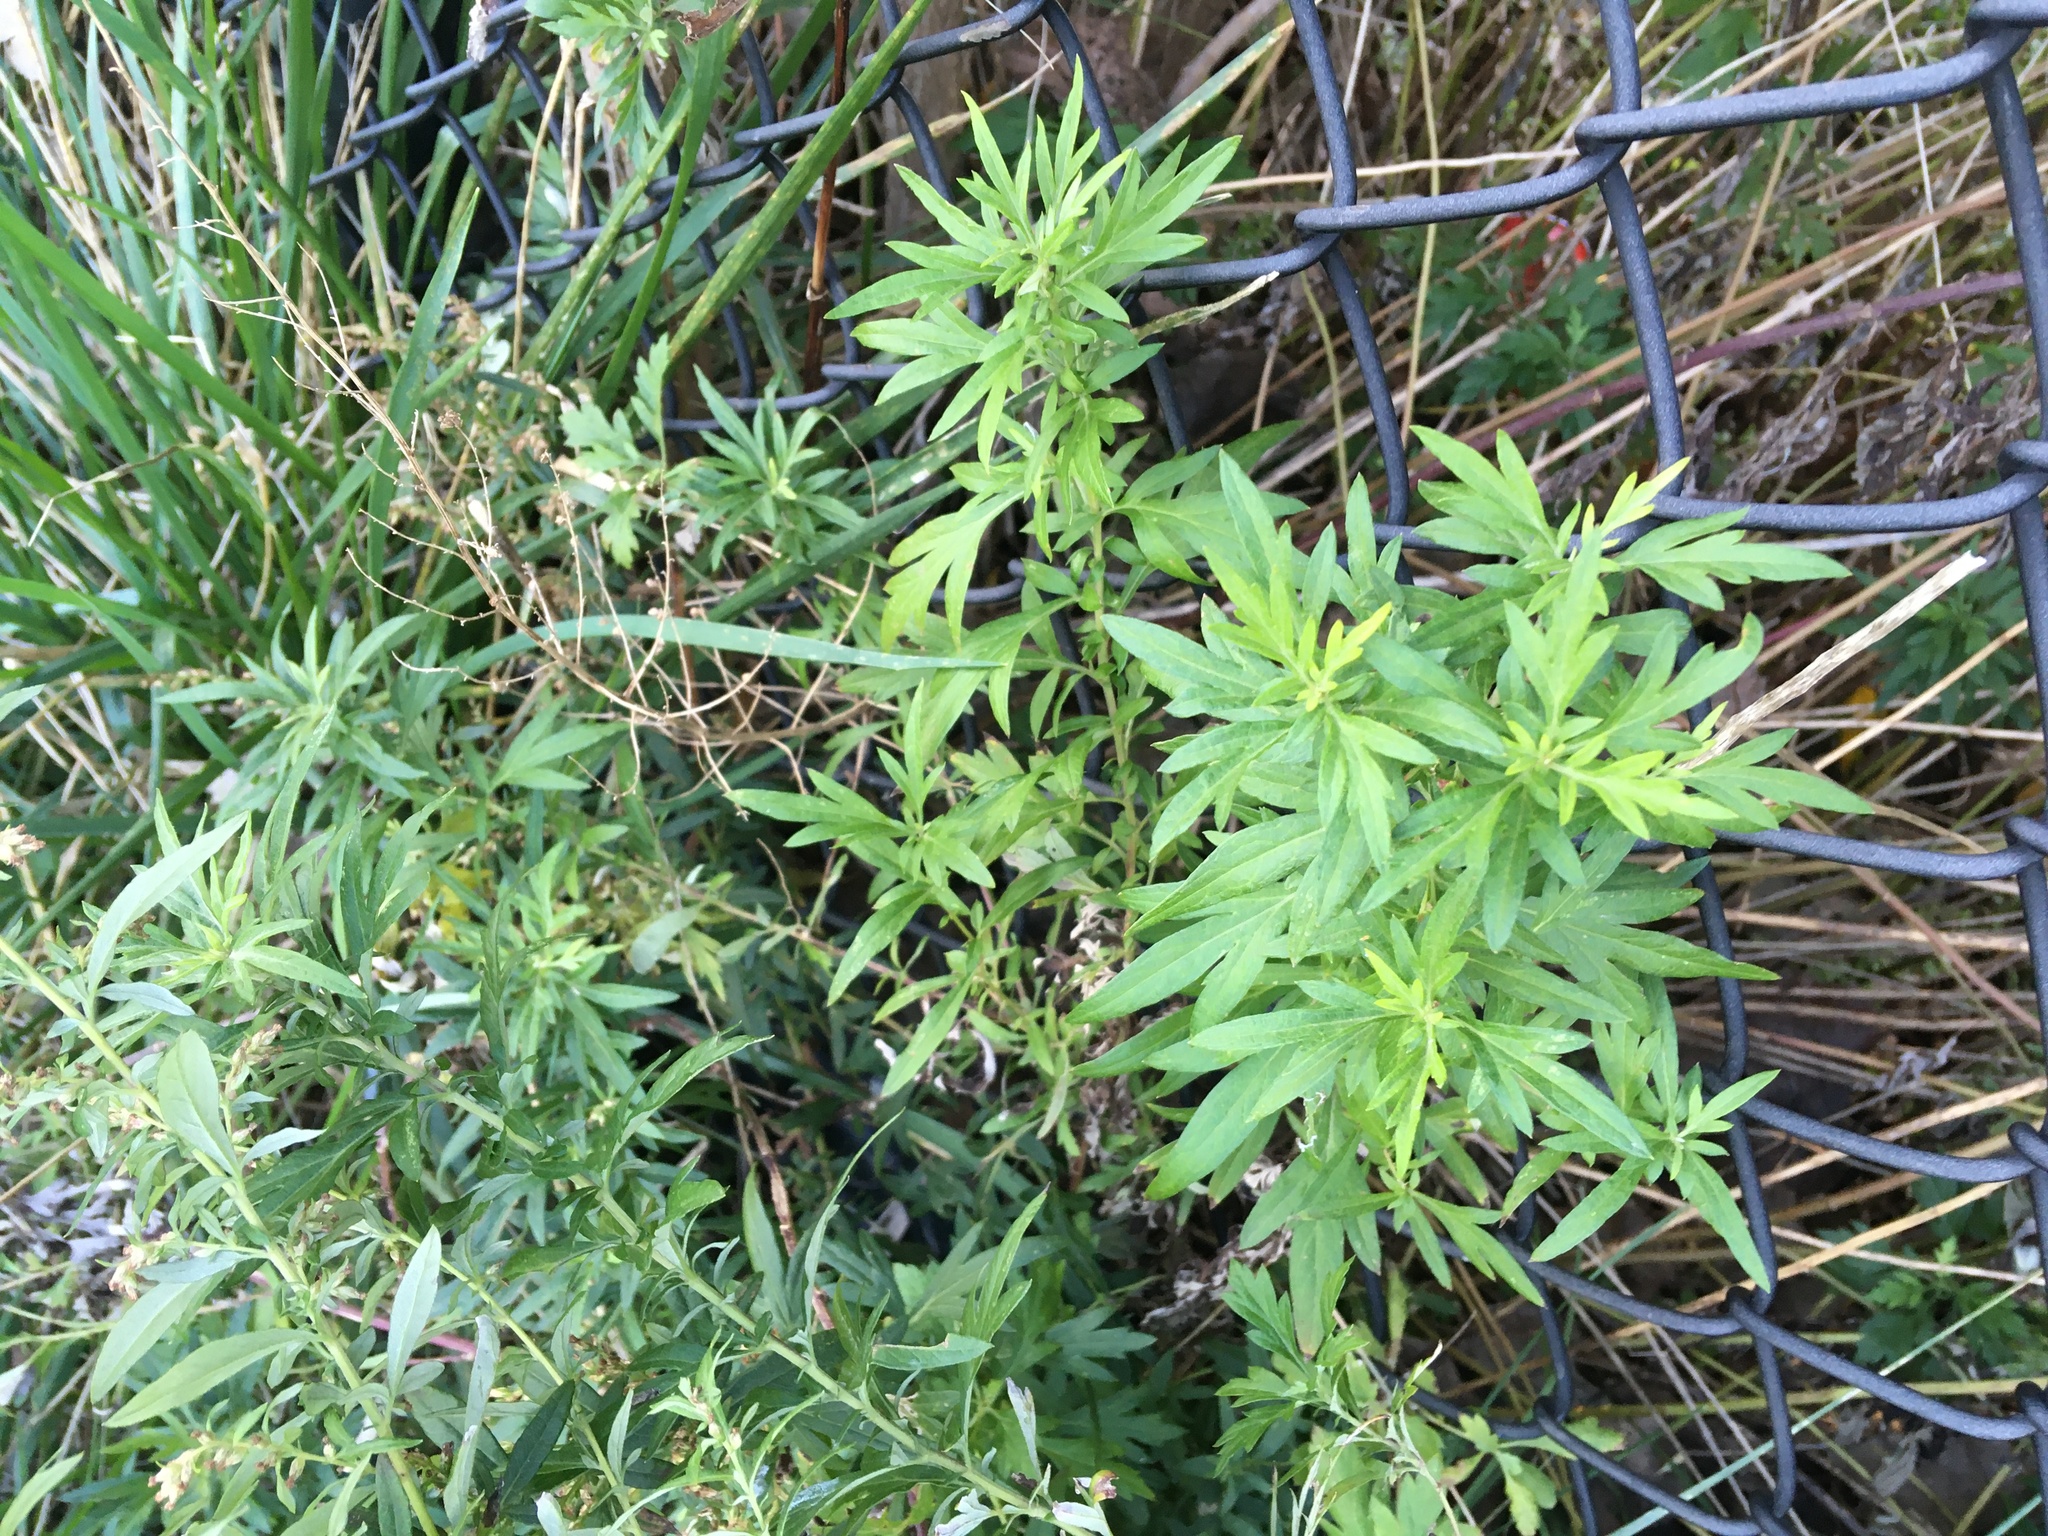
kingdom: Plantae
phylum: Tracheophyta
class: Magnoliopsida
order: Asterales
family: Asteraceae
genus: Artemisia
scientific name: Artemisia vulgaris
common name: Mugwort
